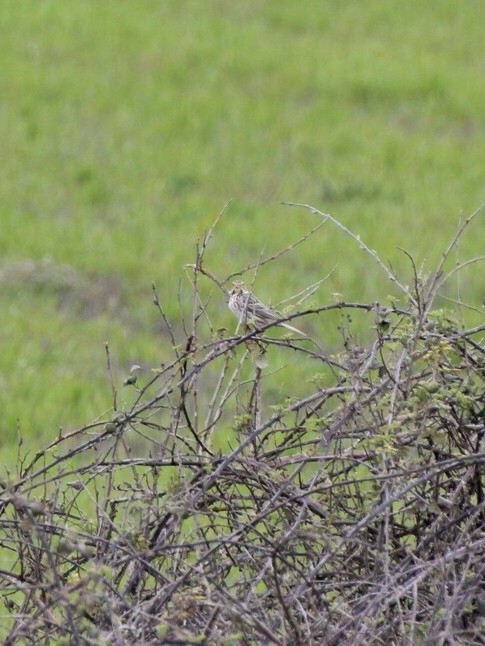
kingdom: Animalia
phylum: Chordata
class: Aves
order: Passeriformes
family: Emberizidae
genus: Emberiza
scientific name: Emberiza calandra
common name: Corn bunting
